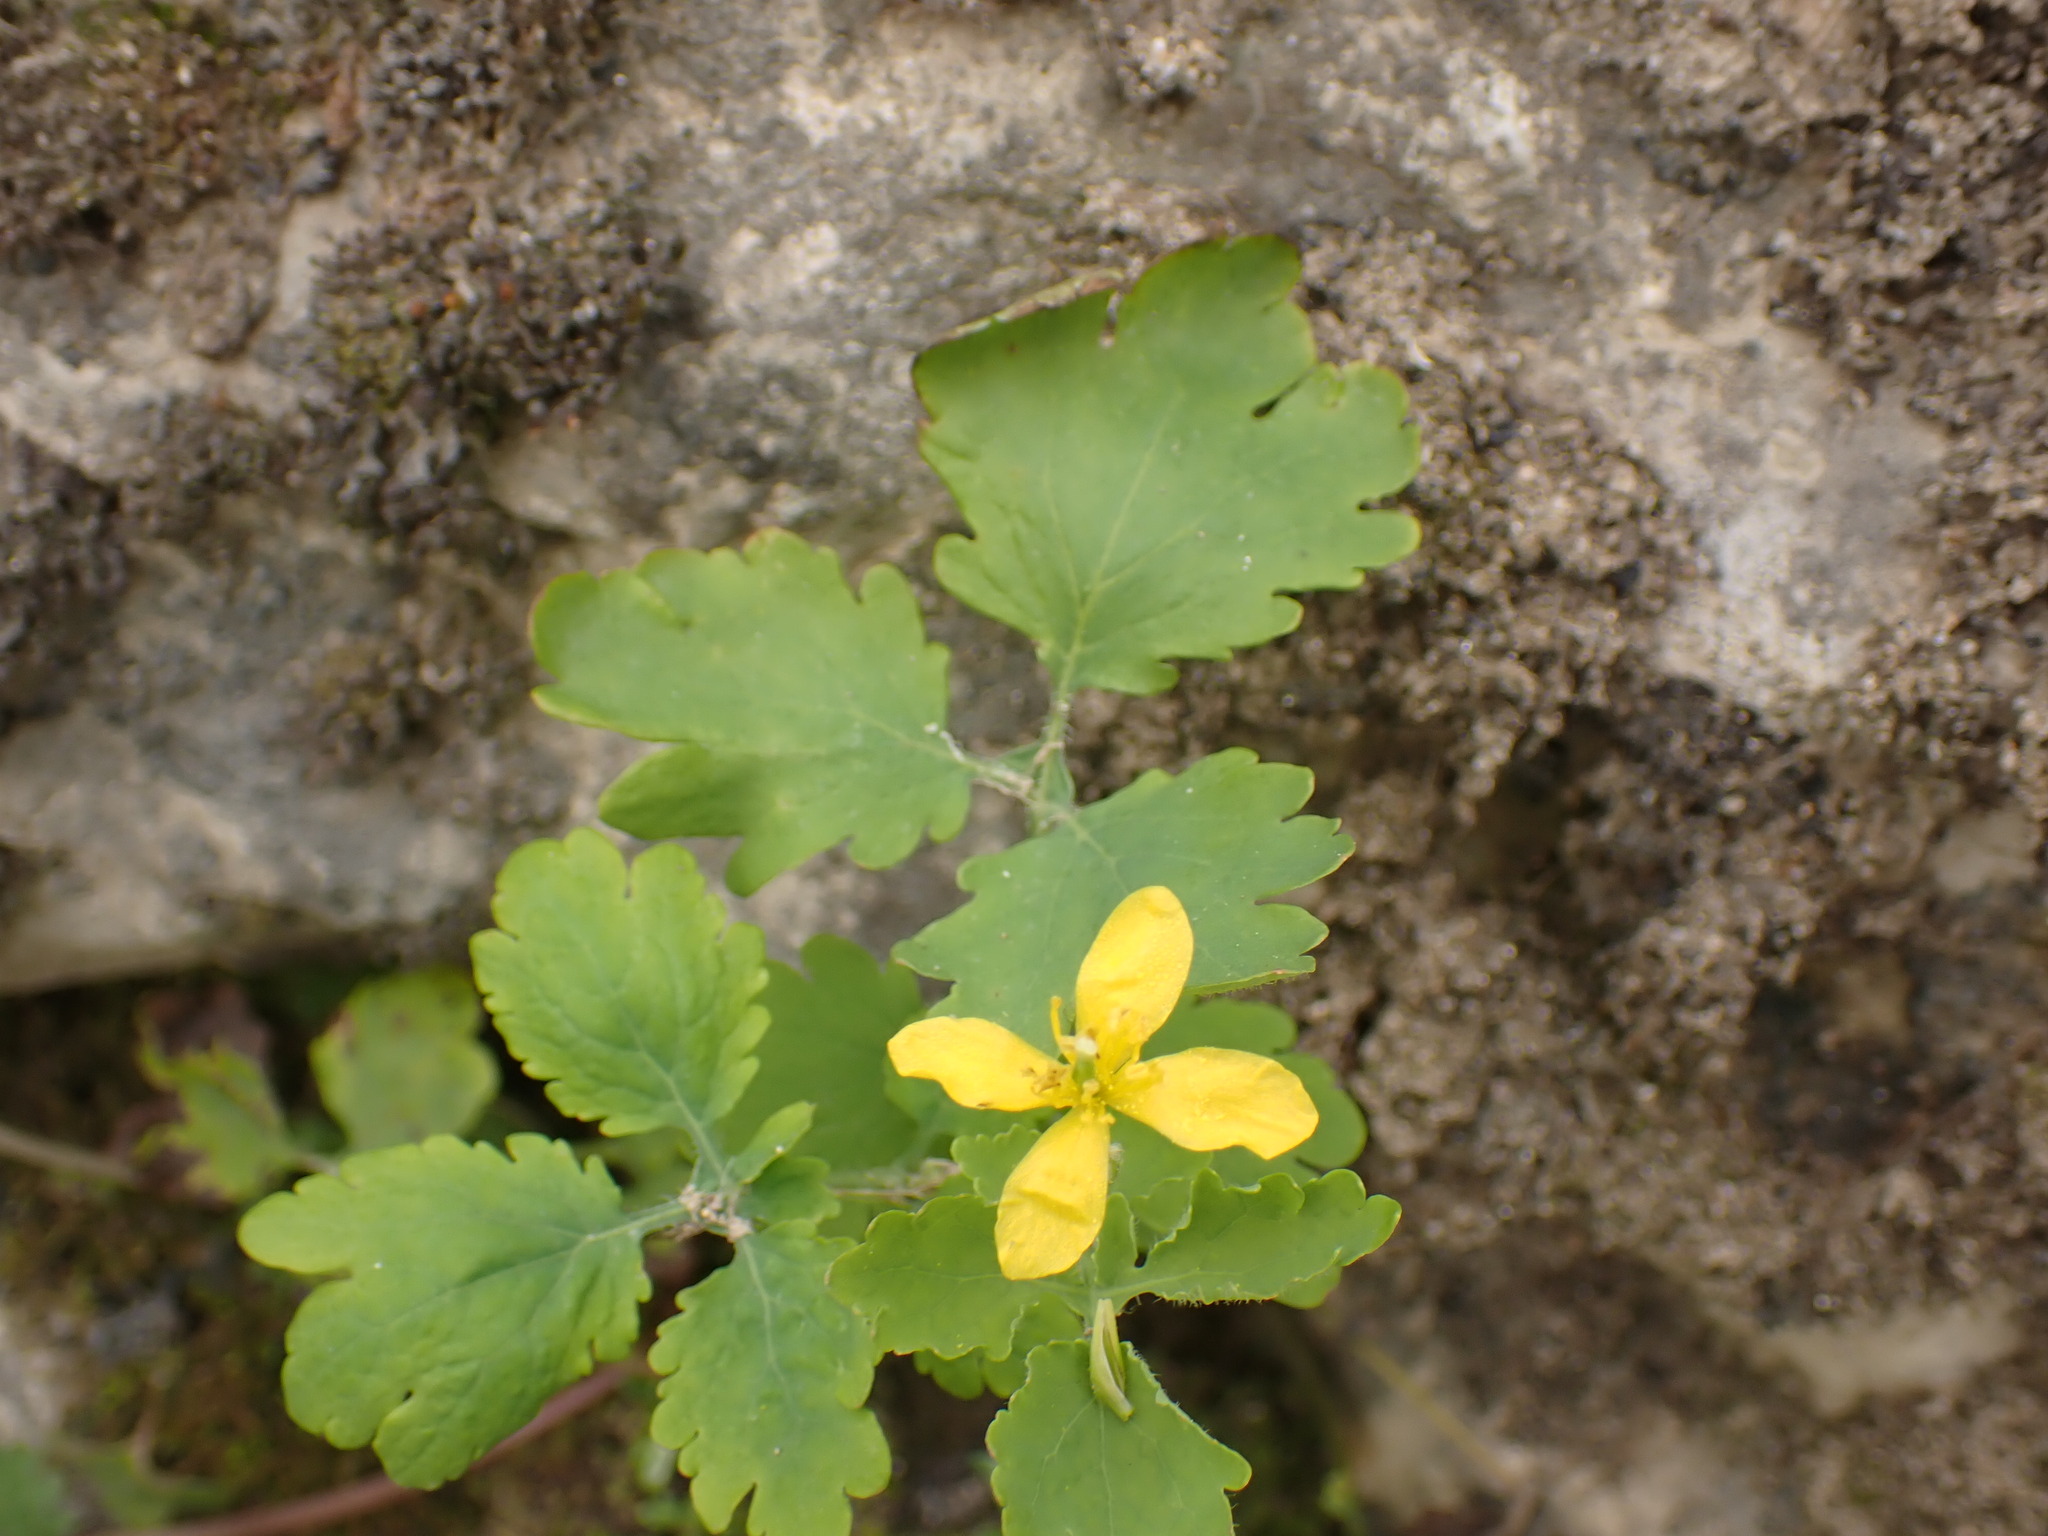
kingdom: Plantae
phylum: Tracheophyta
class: Magnoliopsida
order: Ranunculales
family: Papaveraceae
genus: Chelidonium
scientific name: Chelidonium majus
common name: Greater celandine
